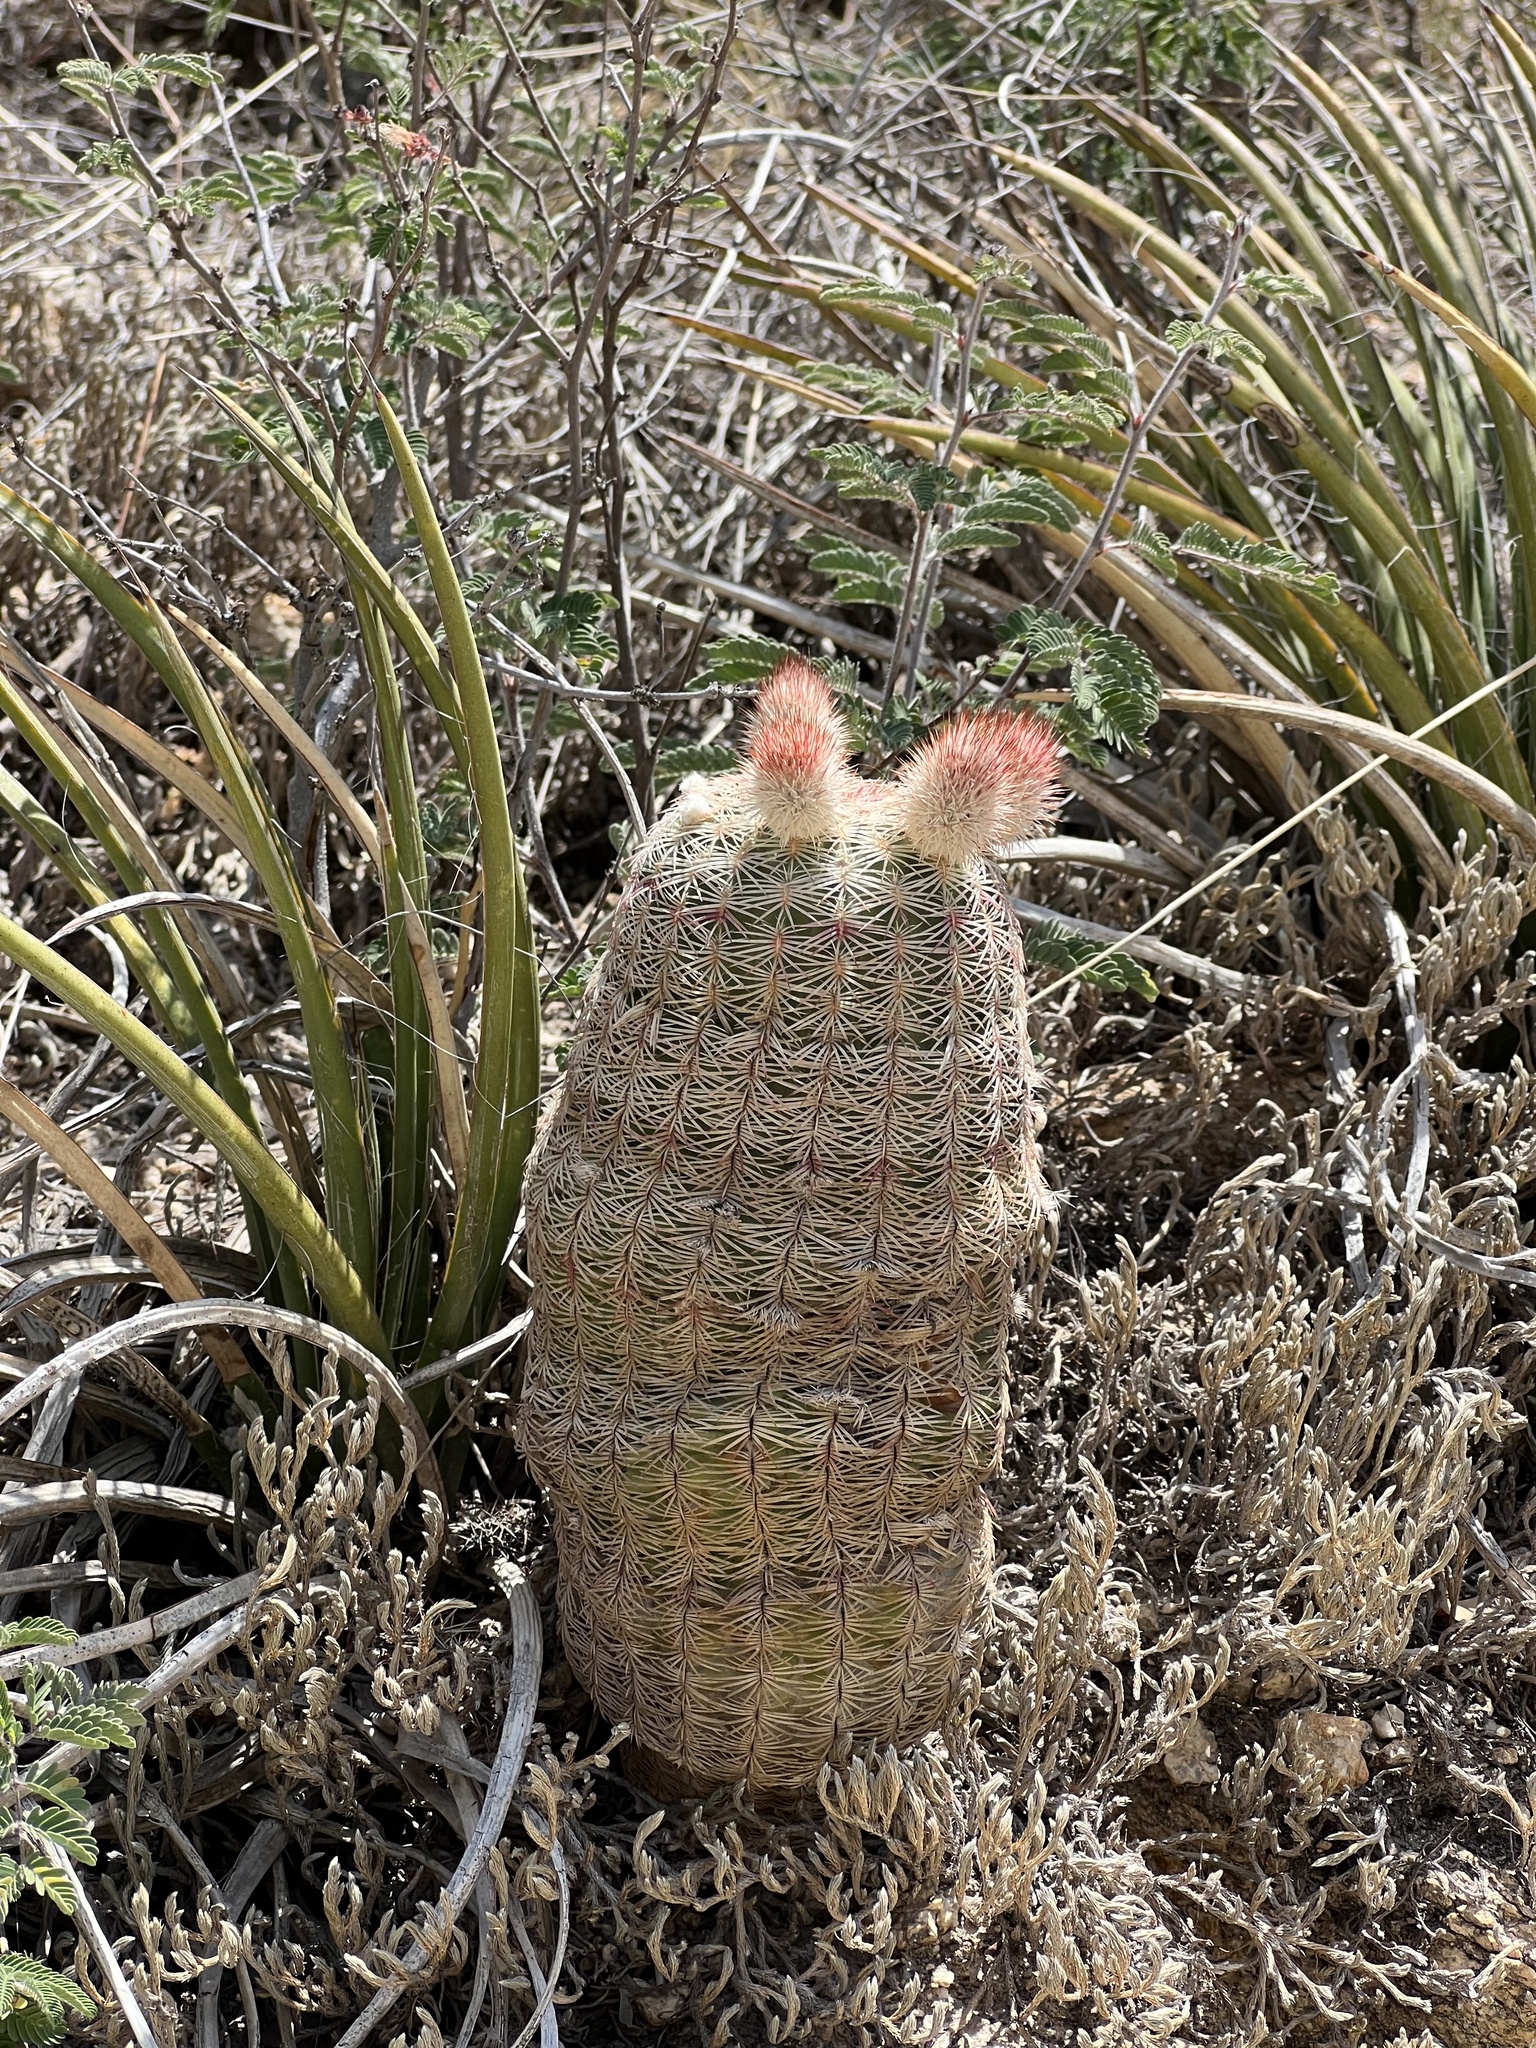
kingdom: Plantae
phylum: Tracheophyta
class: Magnoliopsida
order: Caryophyllales
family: Cactaceae
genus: Echinocereus
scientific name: Echinocereus rigidissimus
